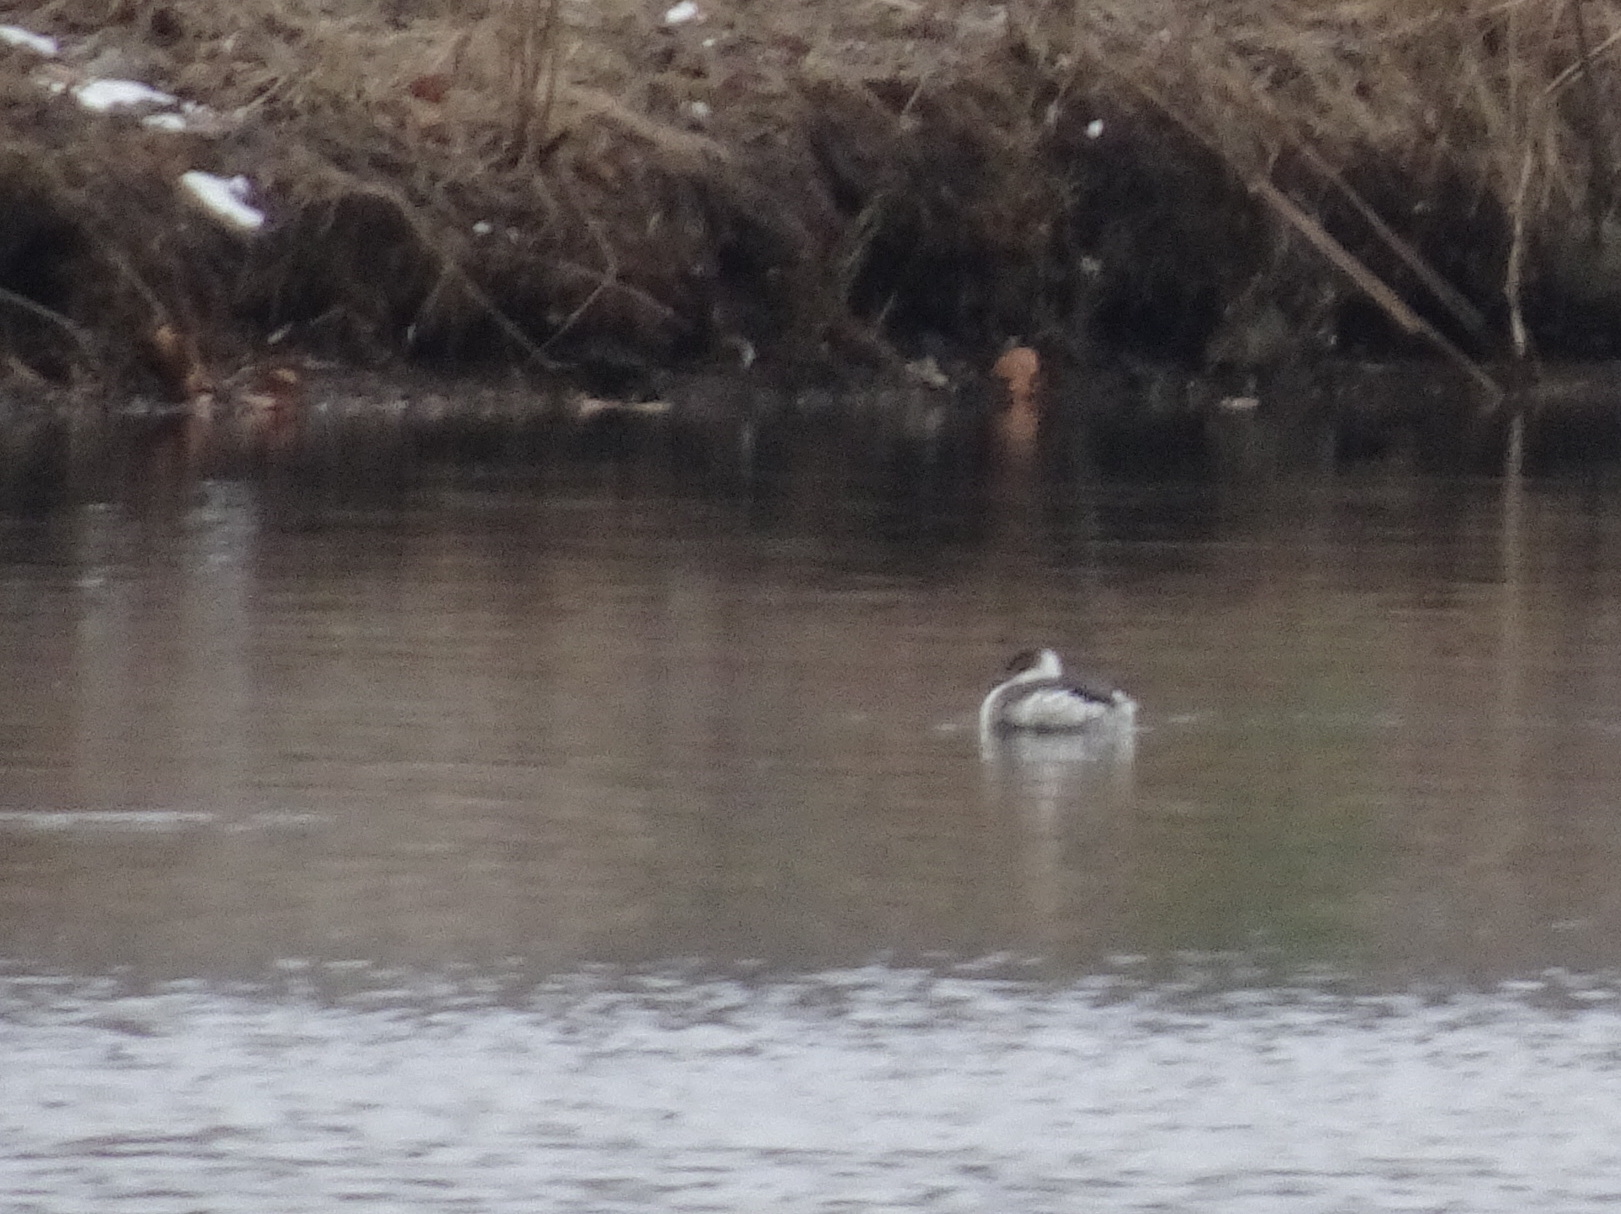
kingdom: Animalia
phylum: Chordata
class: Aves
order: Podicipediformes
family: Podicipedidae
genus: Podiceps
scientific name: Podiceps auritus
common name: Horned grebe
